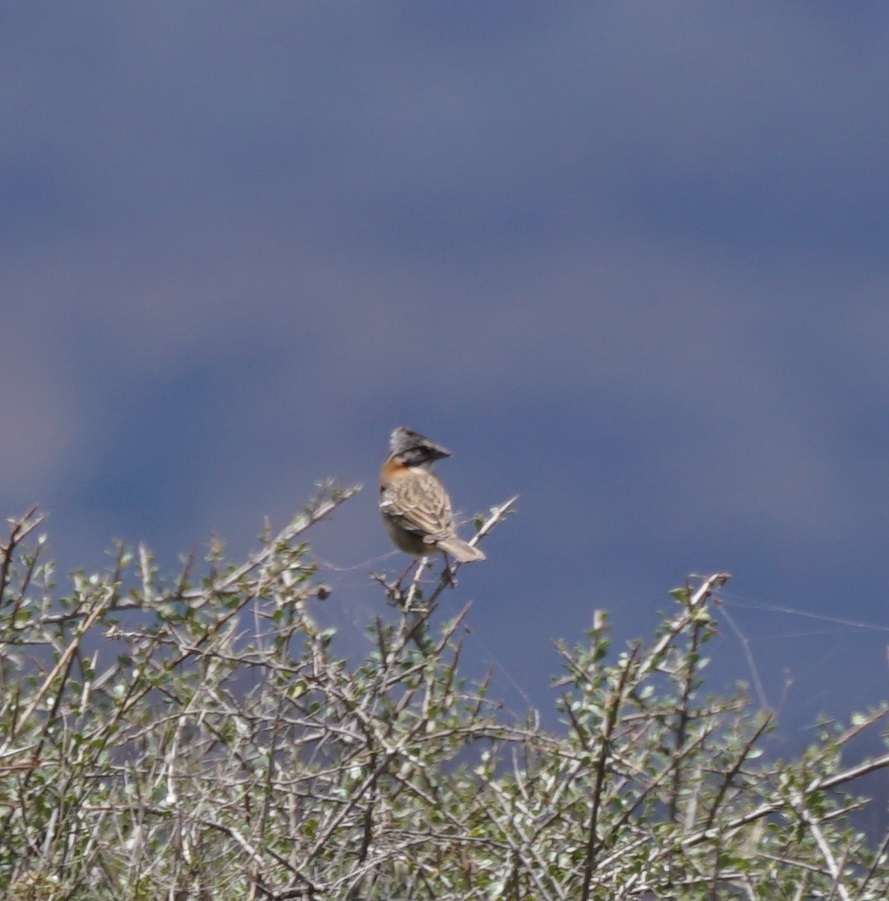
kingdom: Animalia
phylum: Chordata
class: Aves
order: Passeriformes
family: Passerellidae
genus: Zonotrichia
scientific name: Zonotrichia capensis
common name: Rufous-collared sparrow
